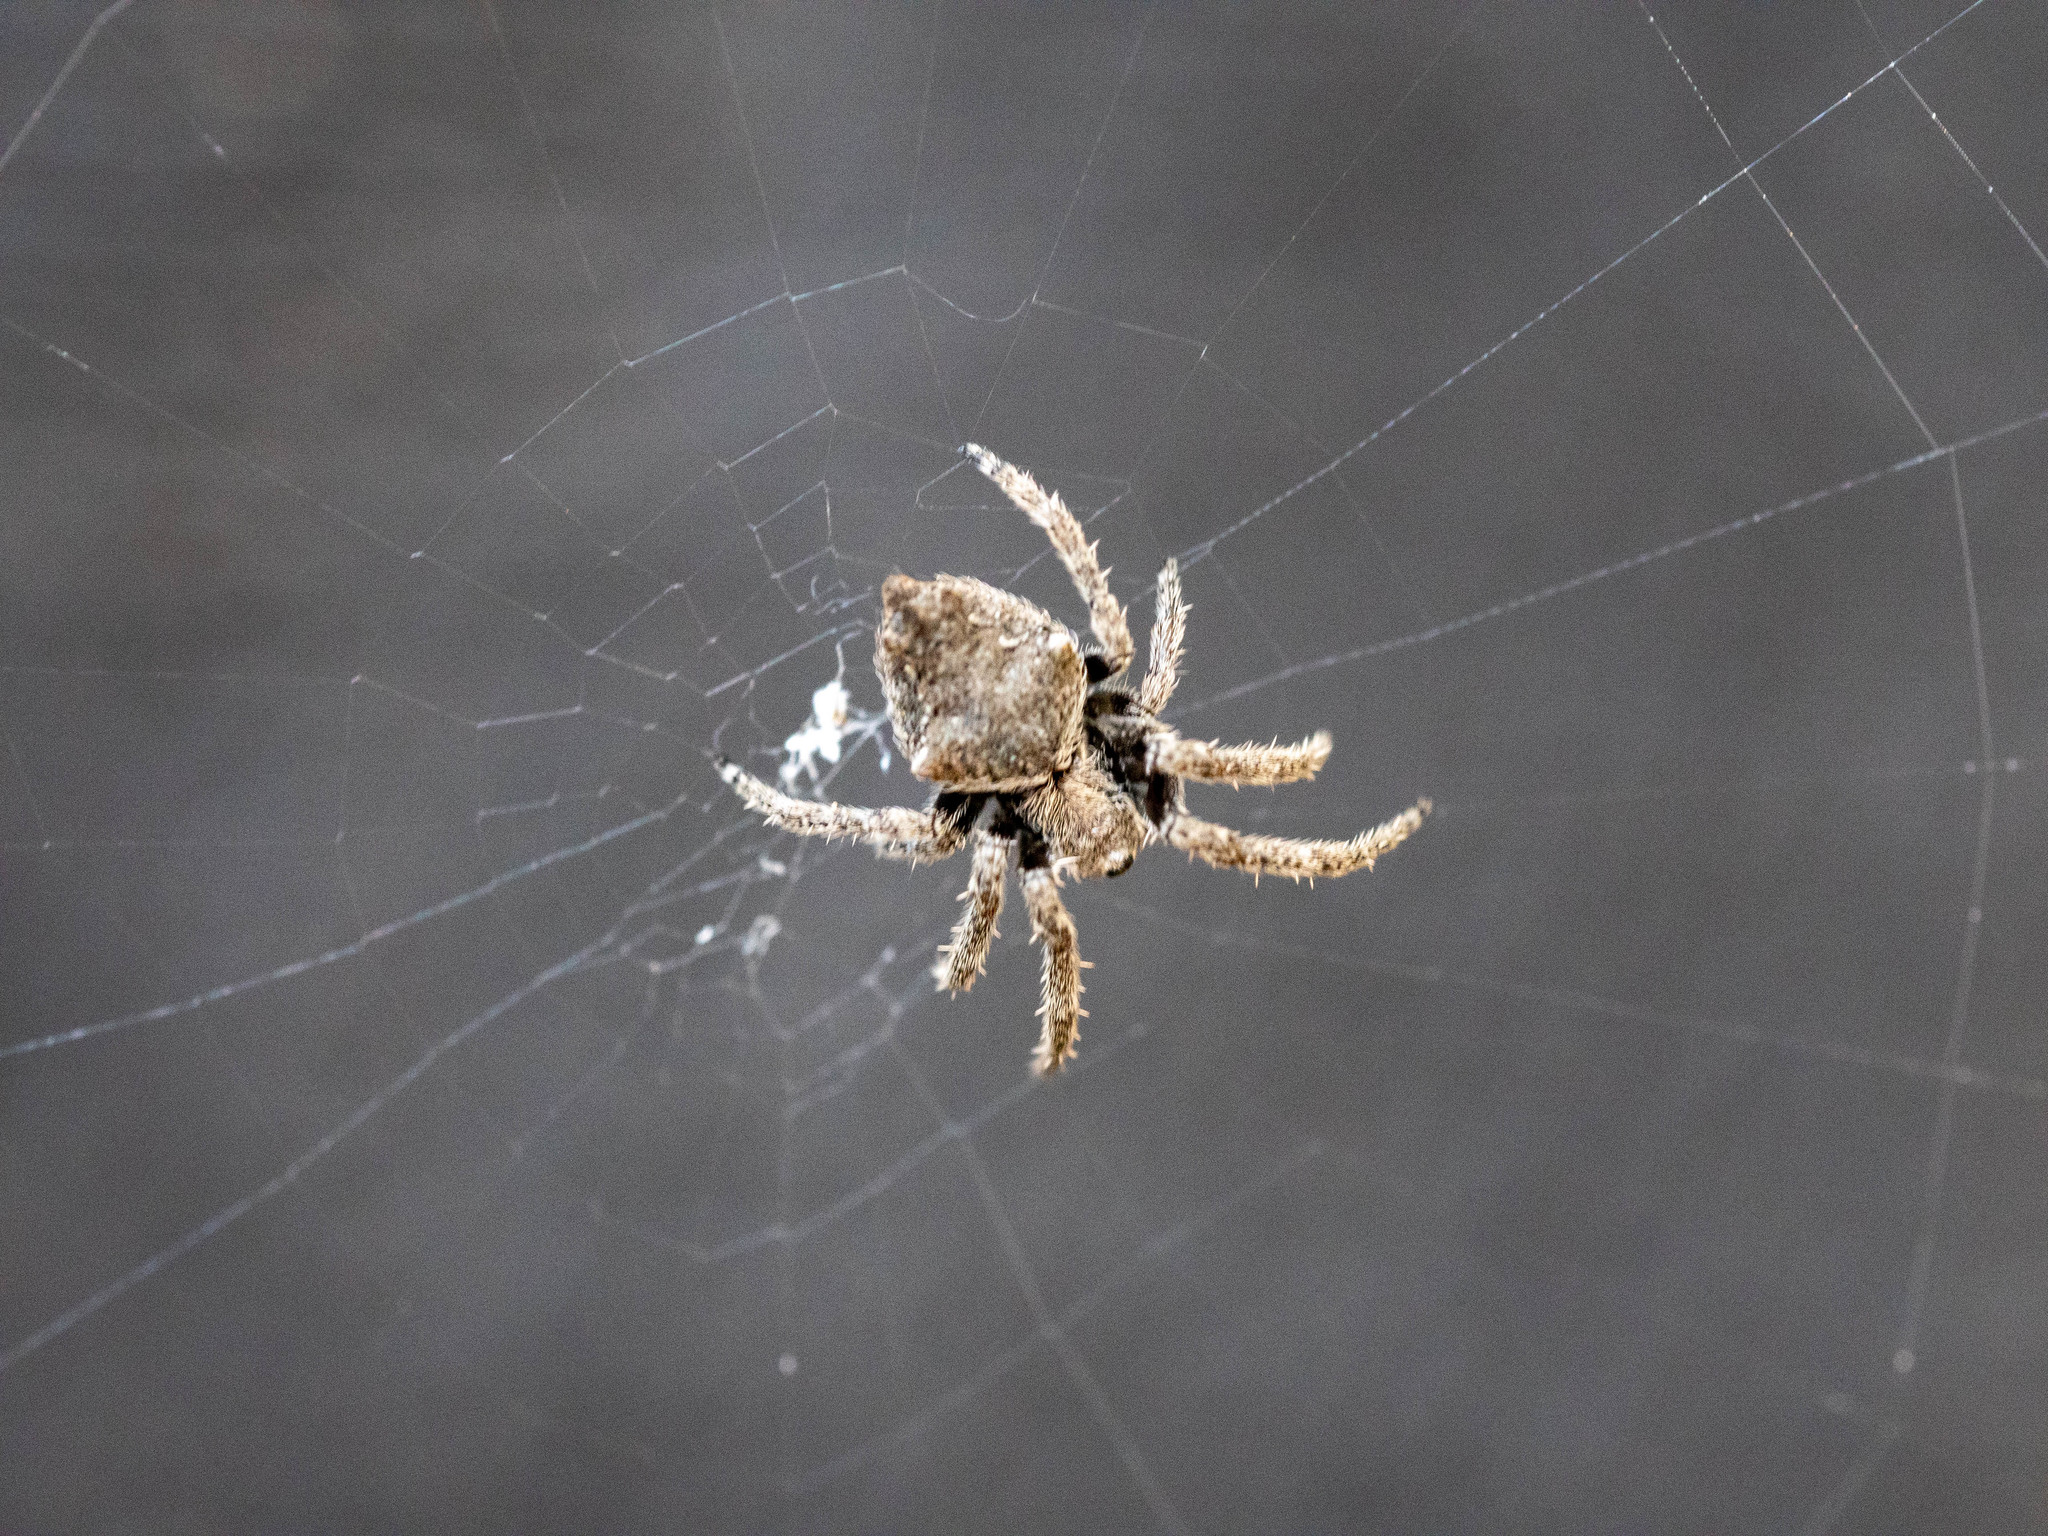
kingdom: Animalia
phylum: Arthropoda
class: Arachnida
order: Araneae
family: Araneidae
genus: Eriophora
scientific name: Eriophora pustulosa
